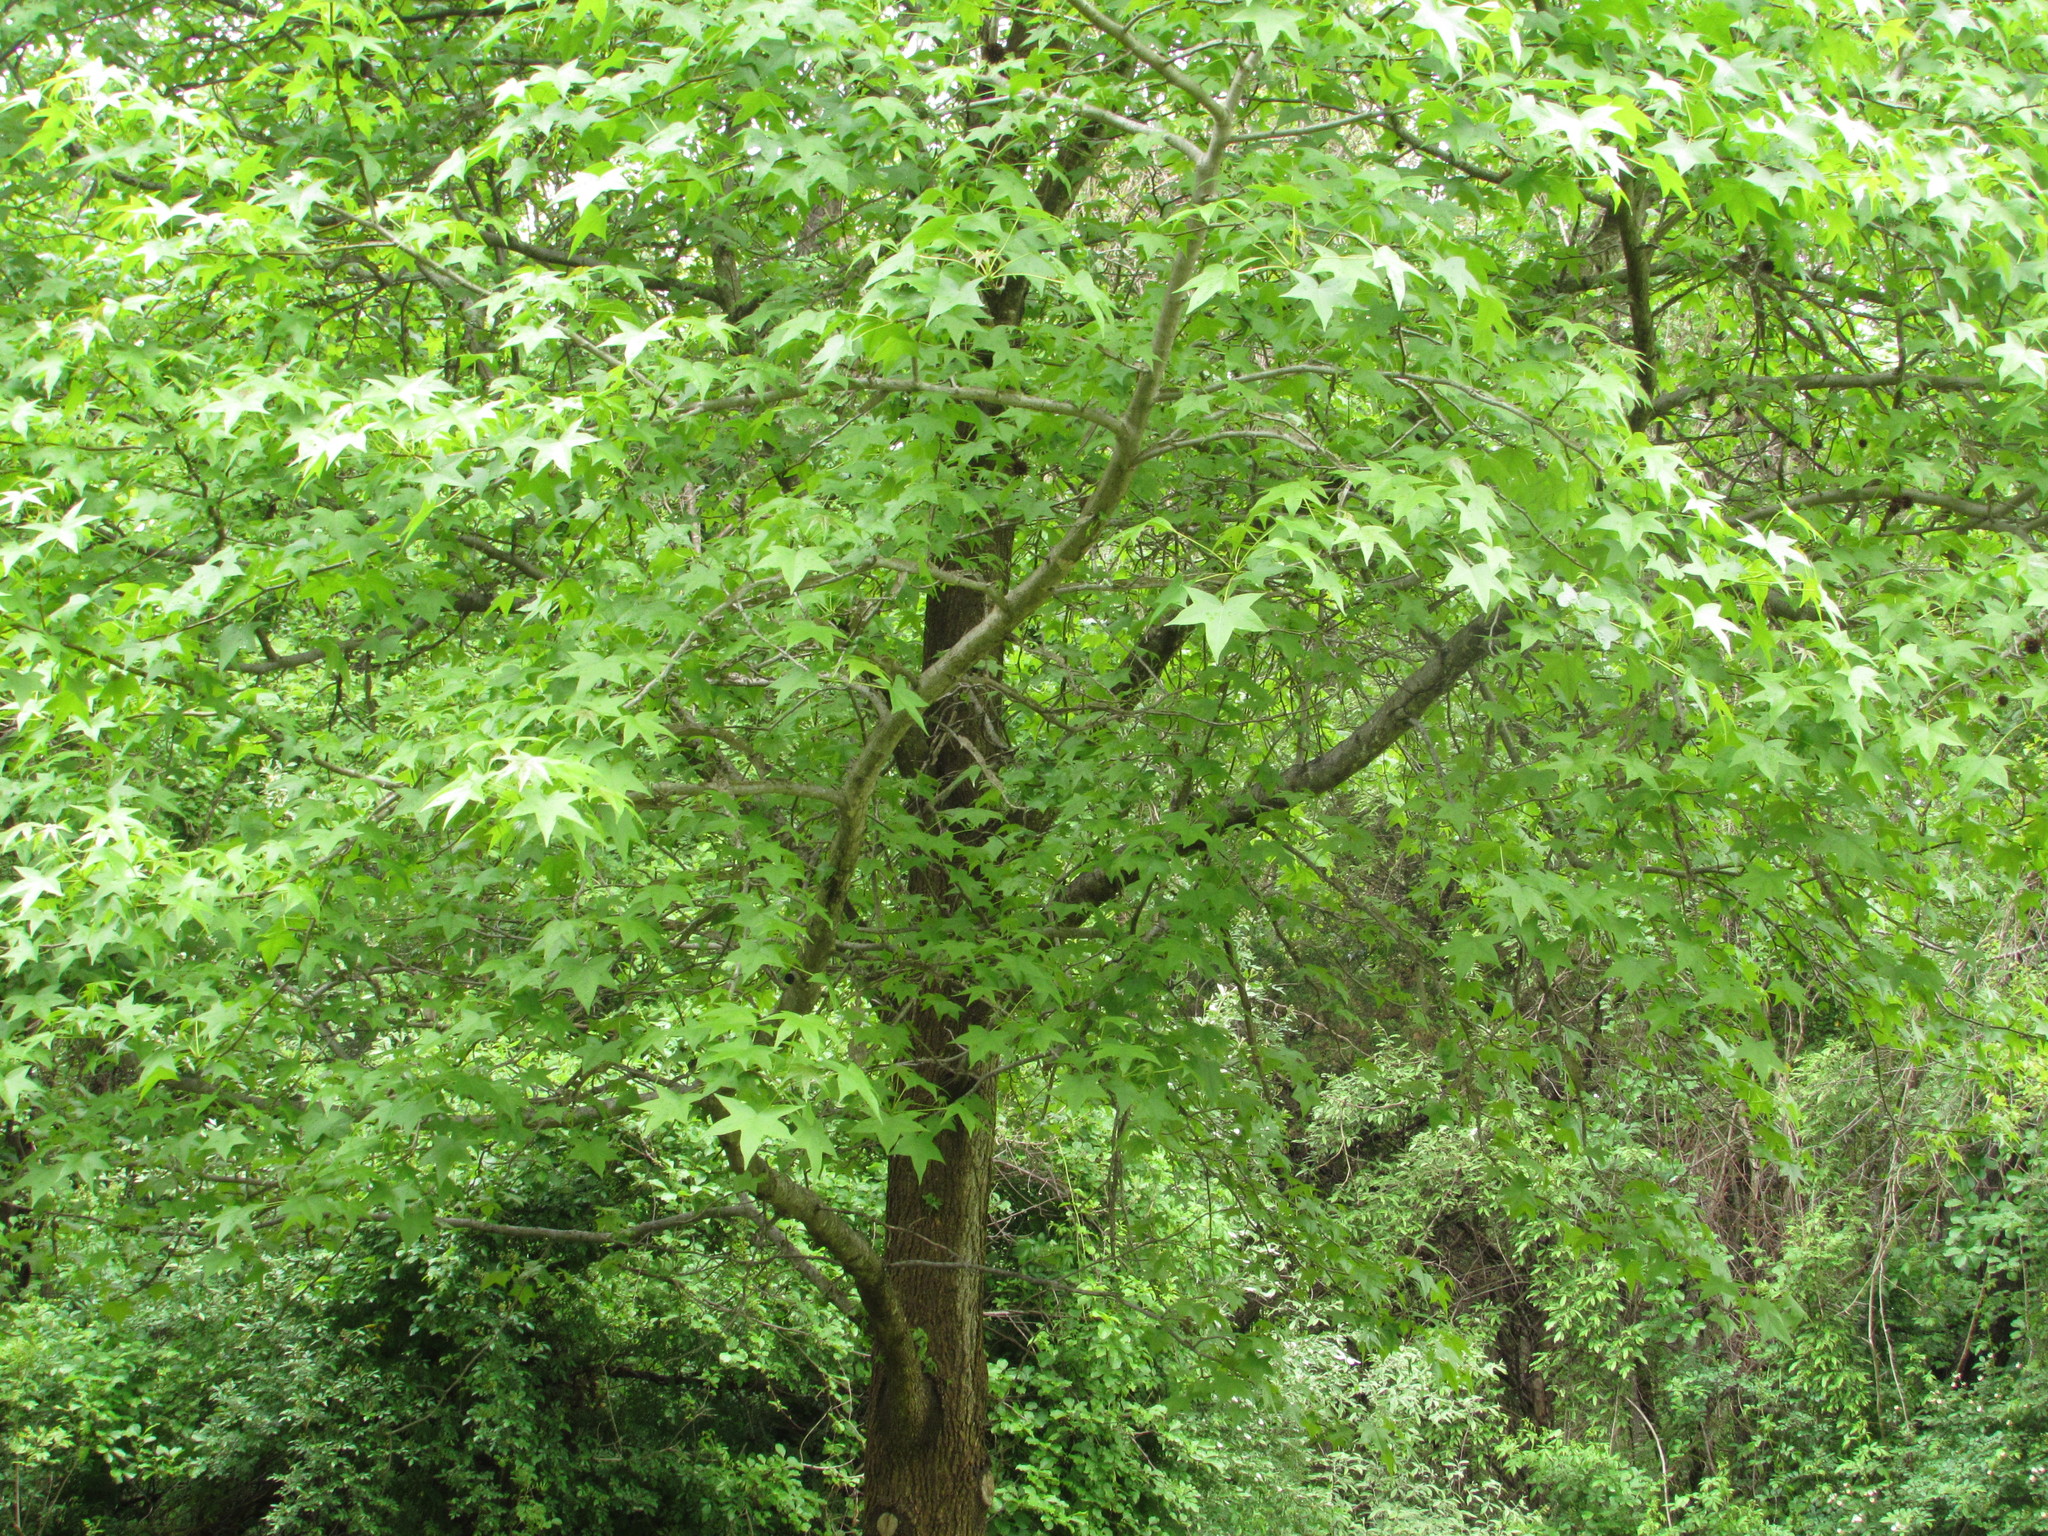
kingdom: Plantae
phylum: Tracheophyta
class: Magnoliopsida
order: Saxifragales
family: Altingiaceae
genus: Liquidambar
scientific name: Liquidambar styraciflua
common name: Sweet gum
